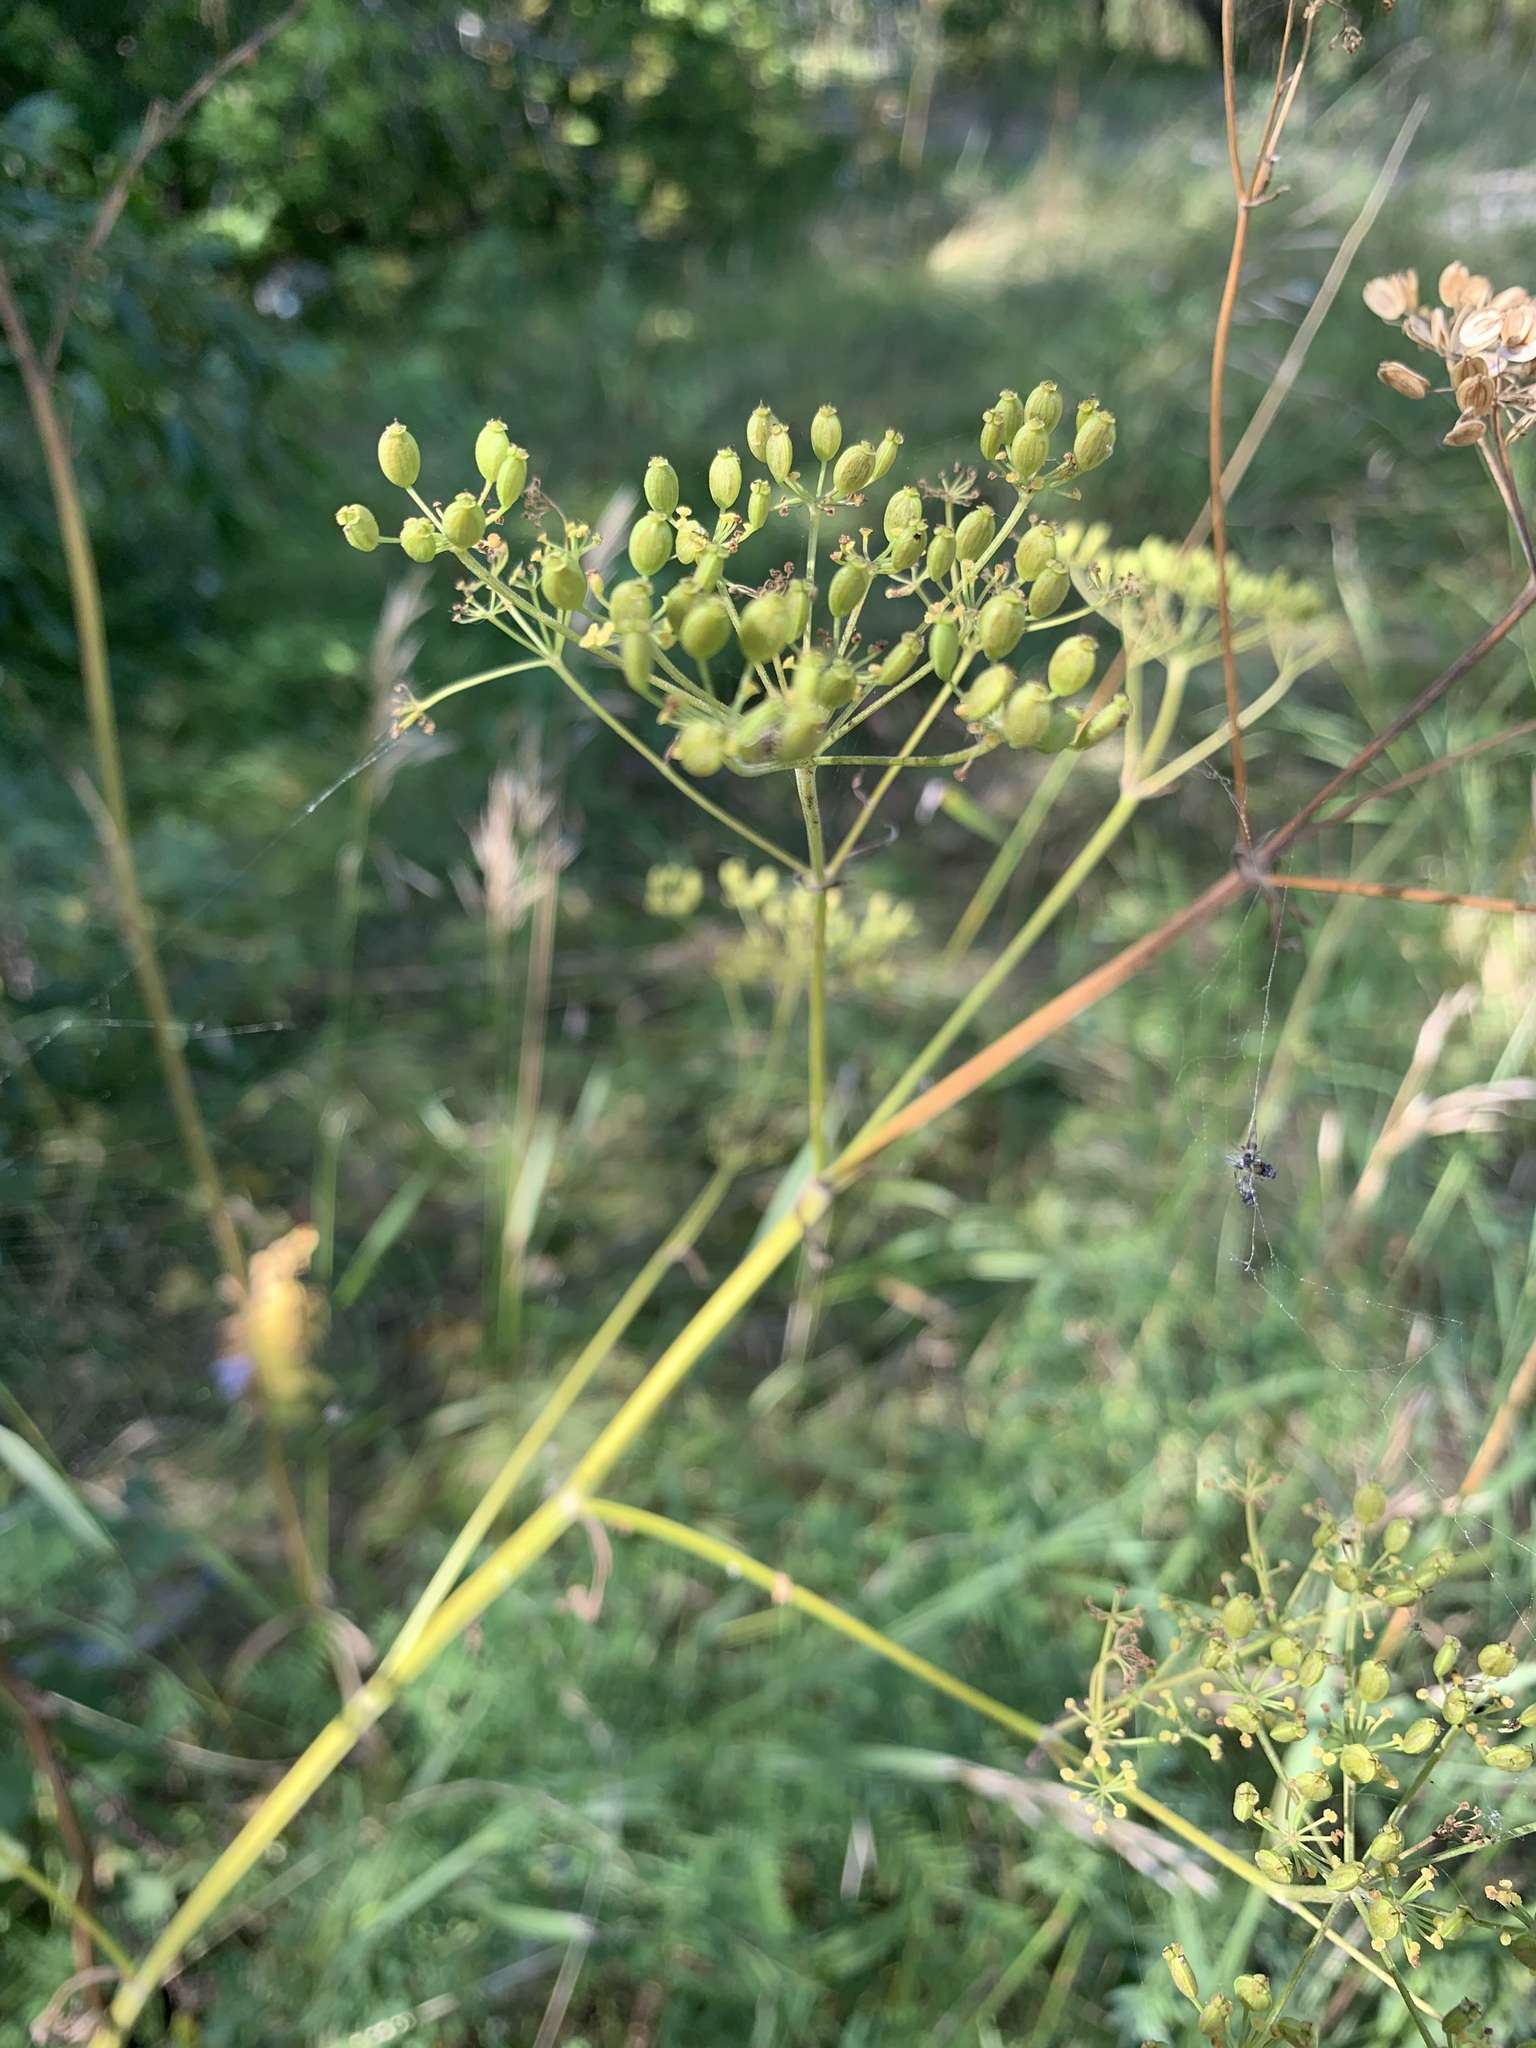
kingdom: Plantae
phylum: Tracheophyta
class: Magnoliopsida
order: Apiales
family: Apiaceae
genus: Pastinaca
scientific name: Pastinaca sativa
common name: Wild parsnip
